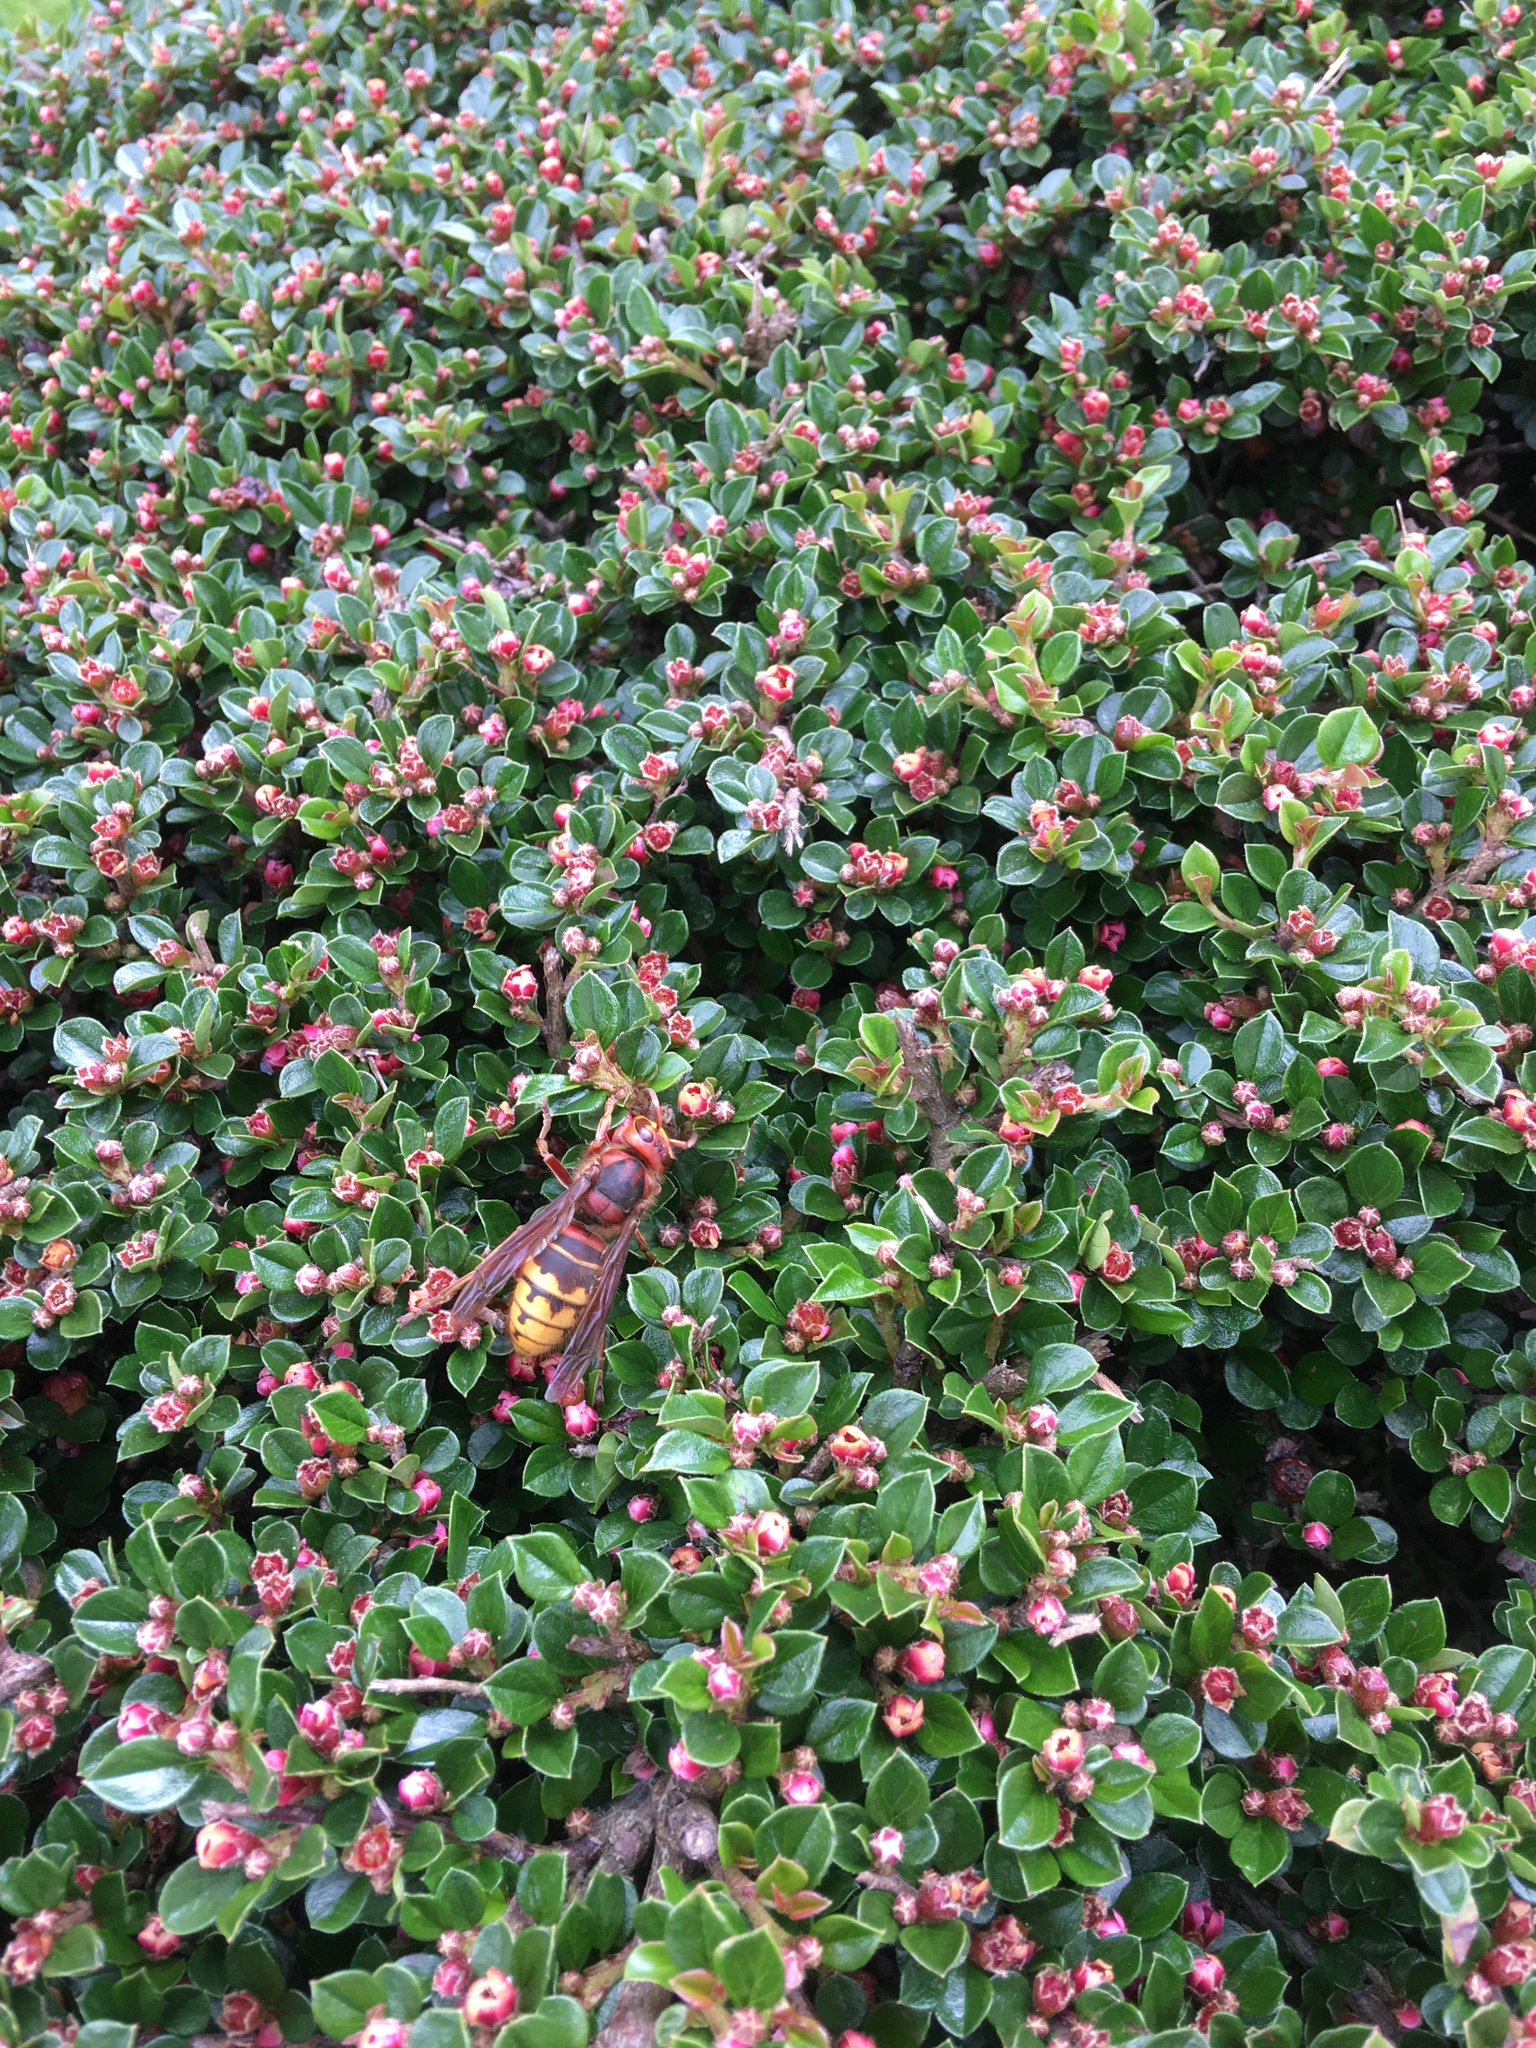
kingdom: Animalia
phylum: Arthropoda
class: Insecta
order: Hymenoptera
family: Vespidae
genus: Vespa
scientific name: Vespa crabro
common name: Hornet
